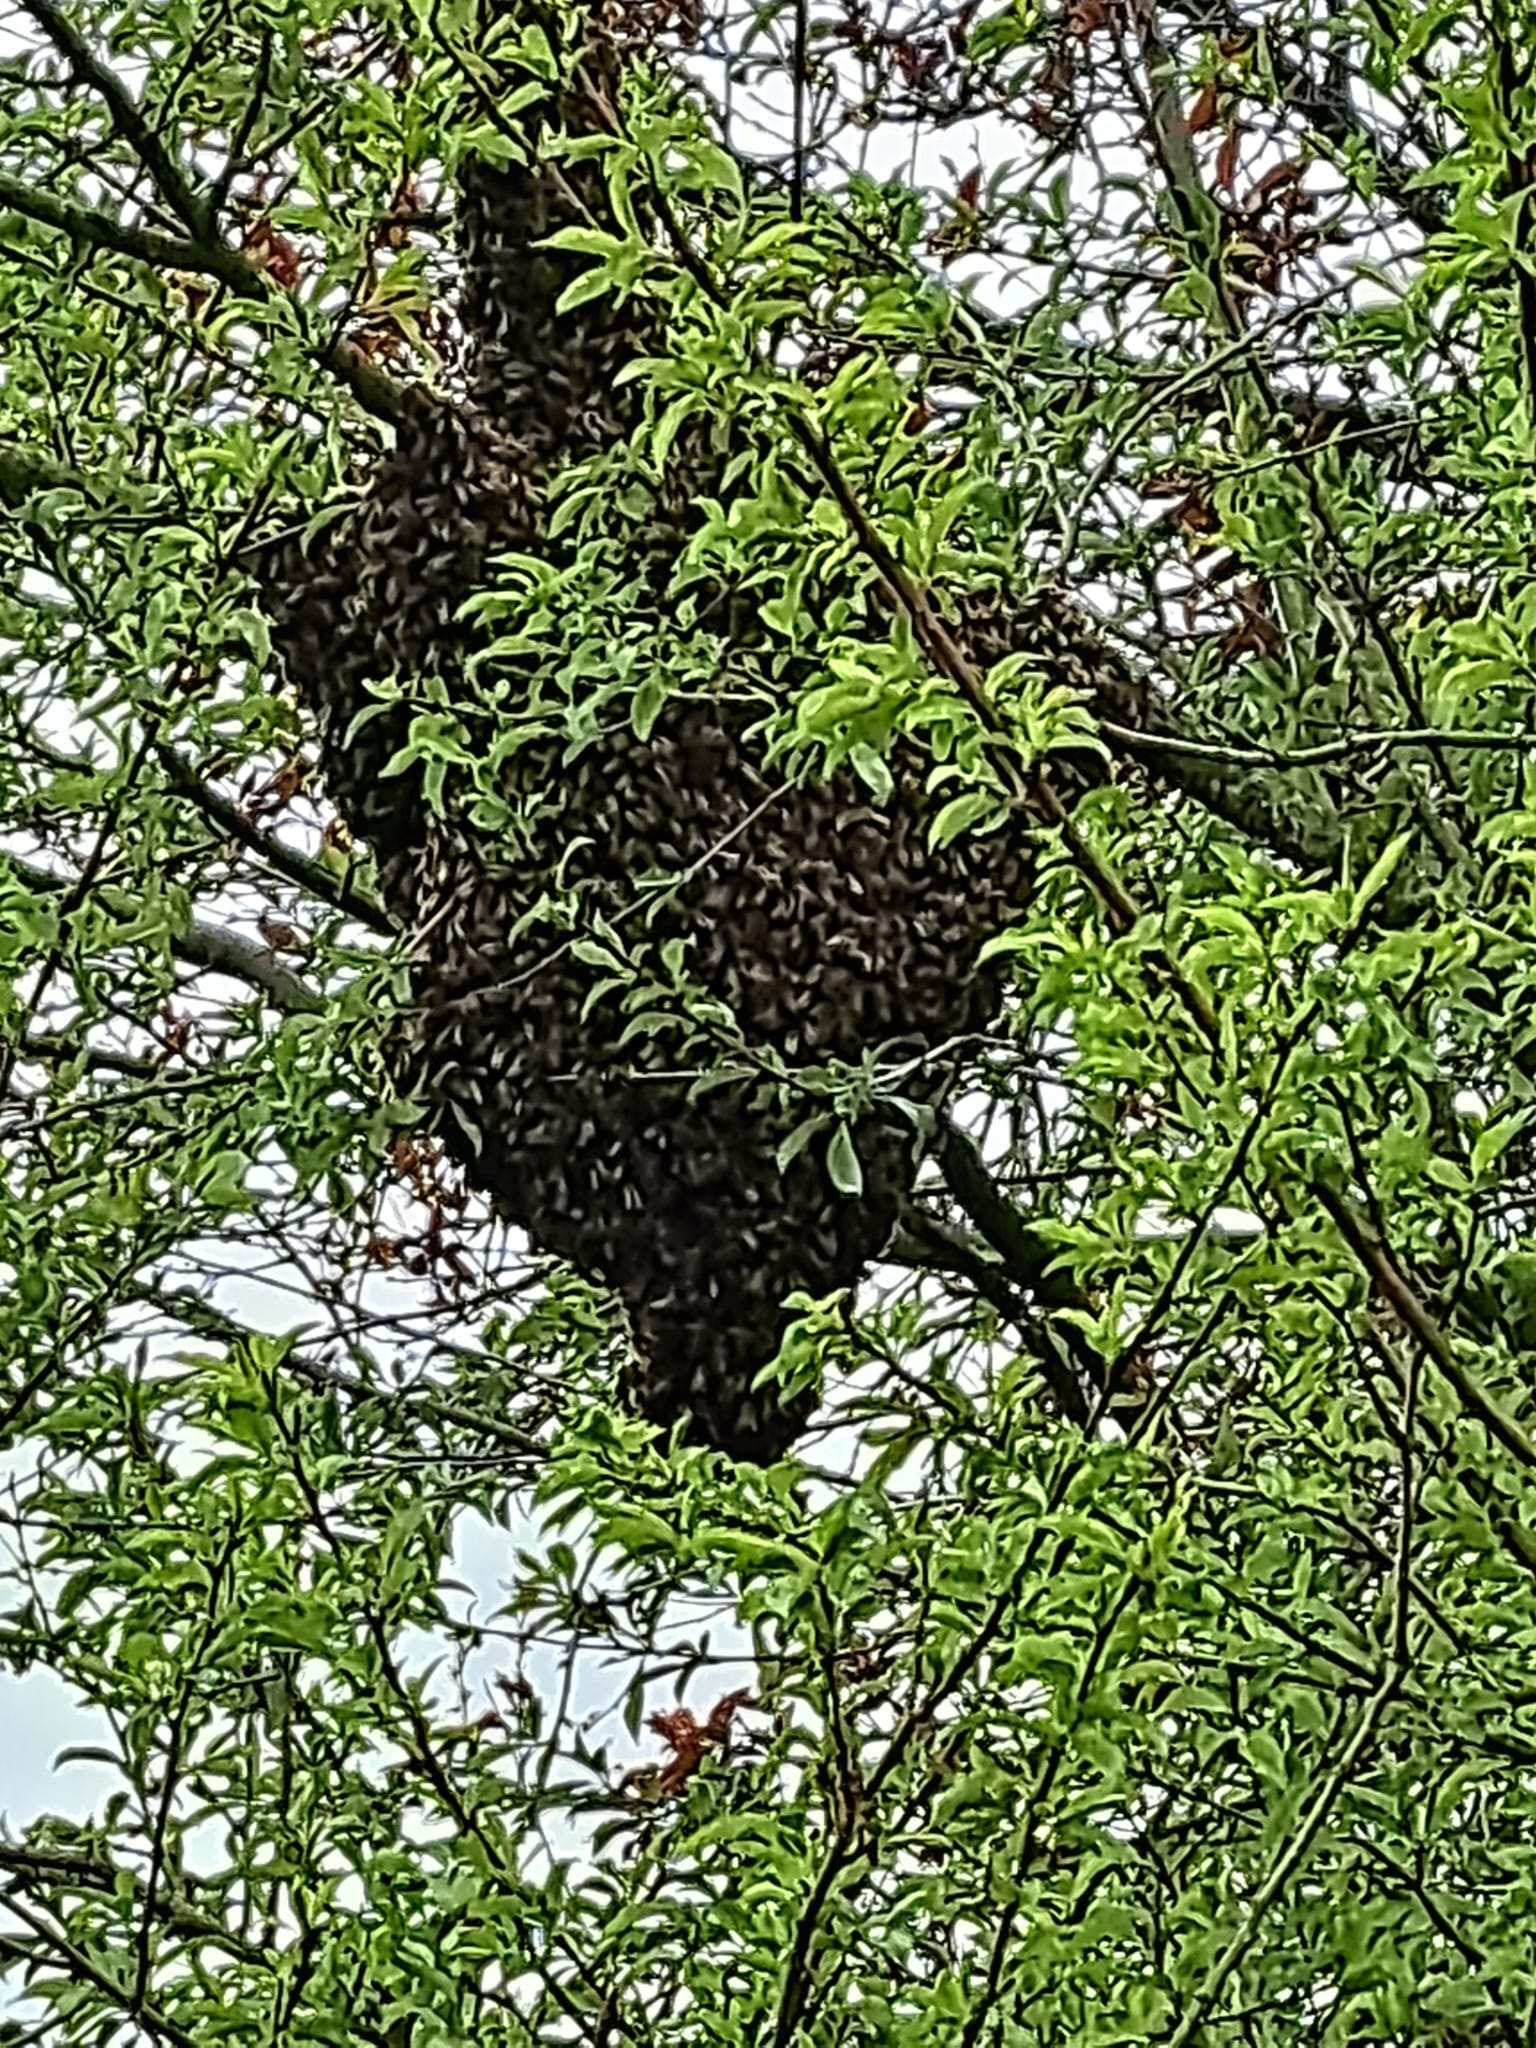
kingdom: Animalia
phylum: Arthropoda
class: Insecta
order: Hymenoptera
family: Apidae
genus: Apis
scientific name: Apis mellifera
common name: Honey bee
